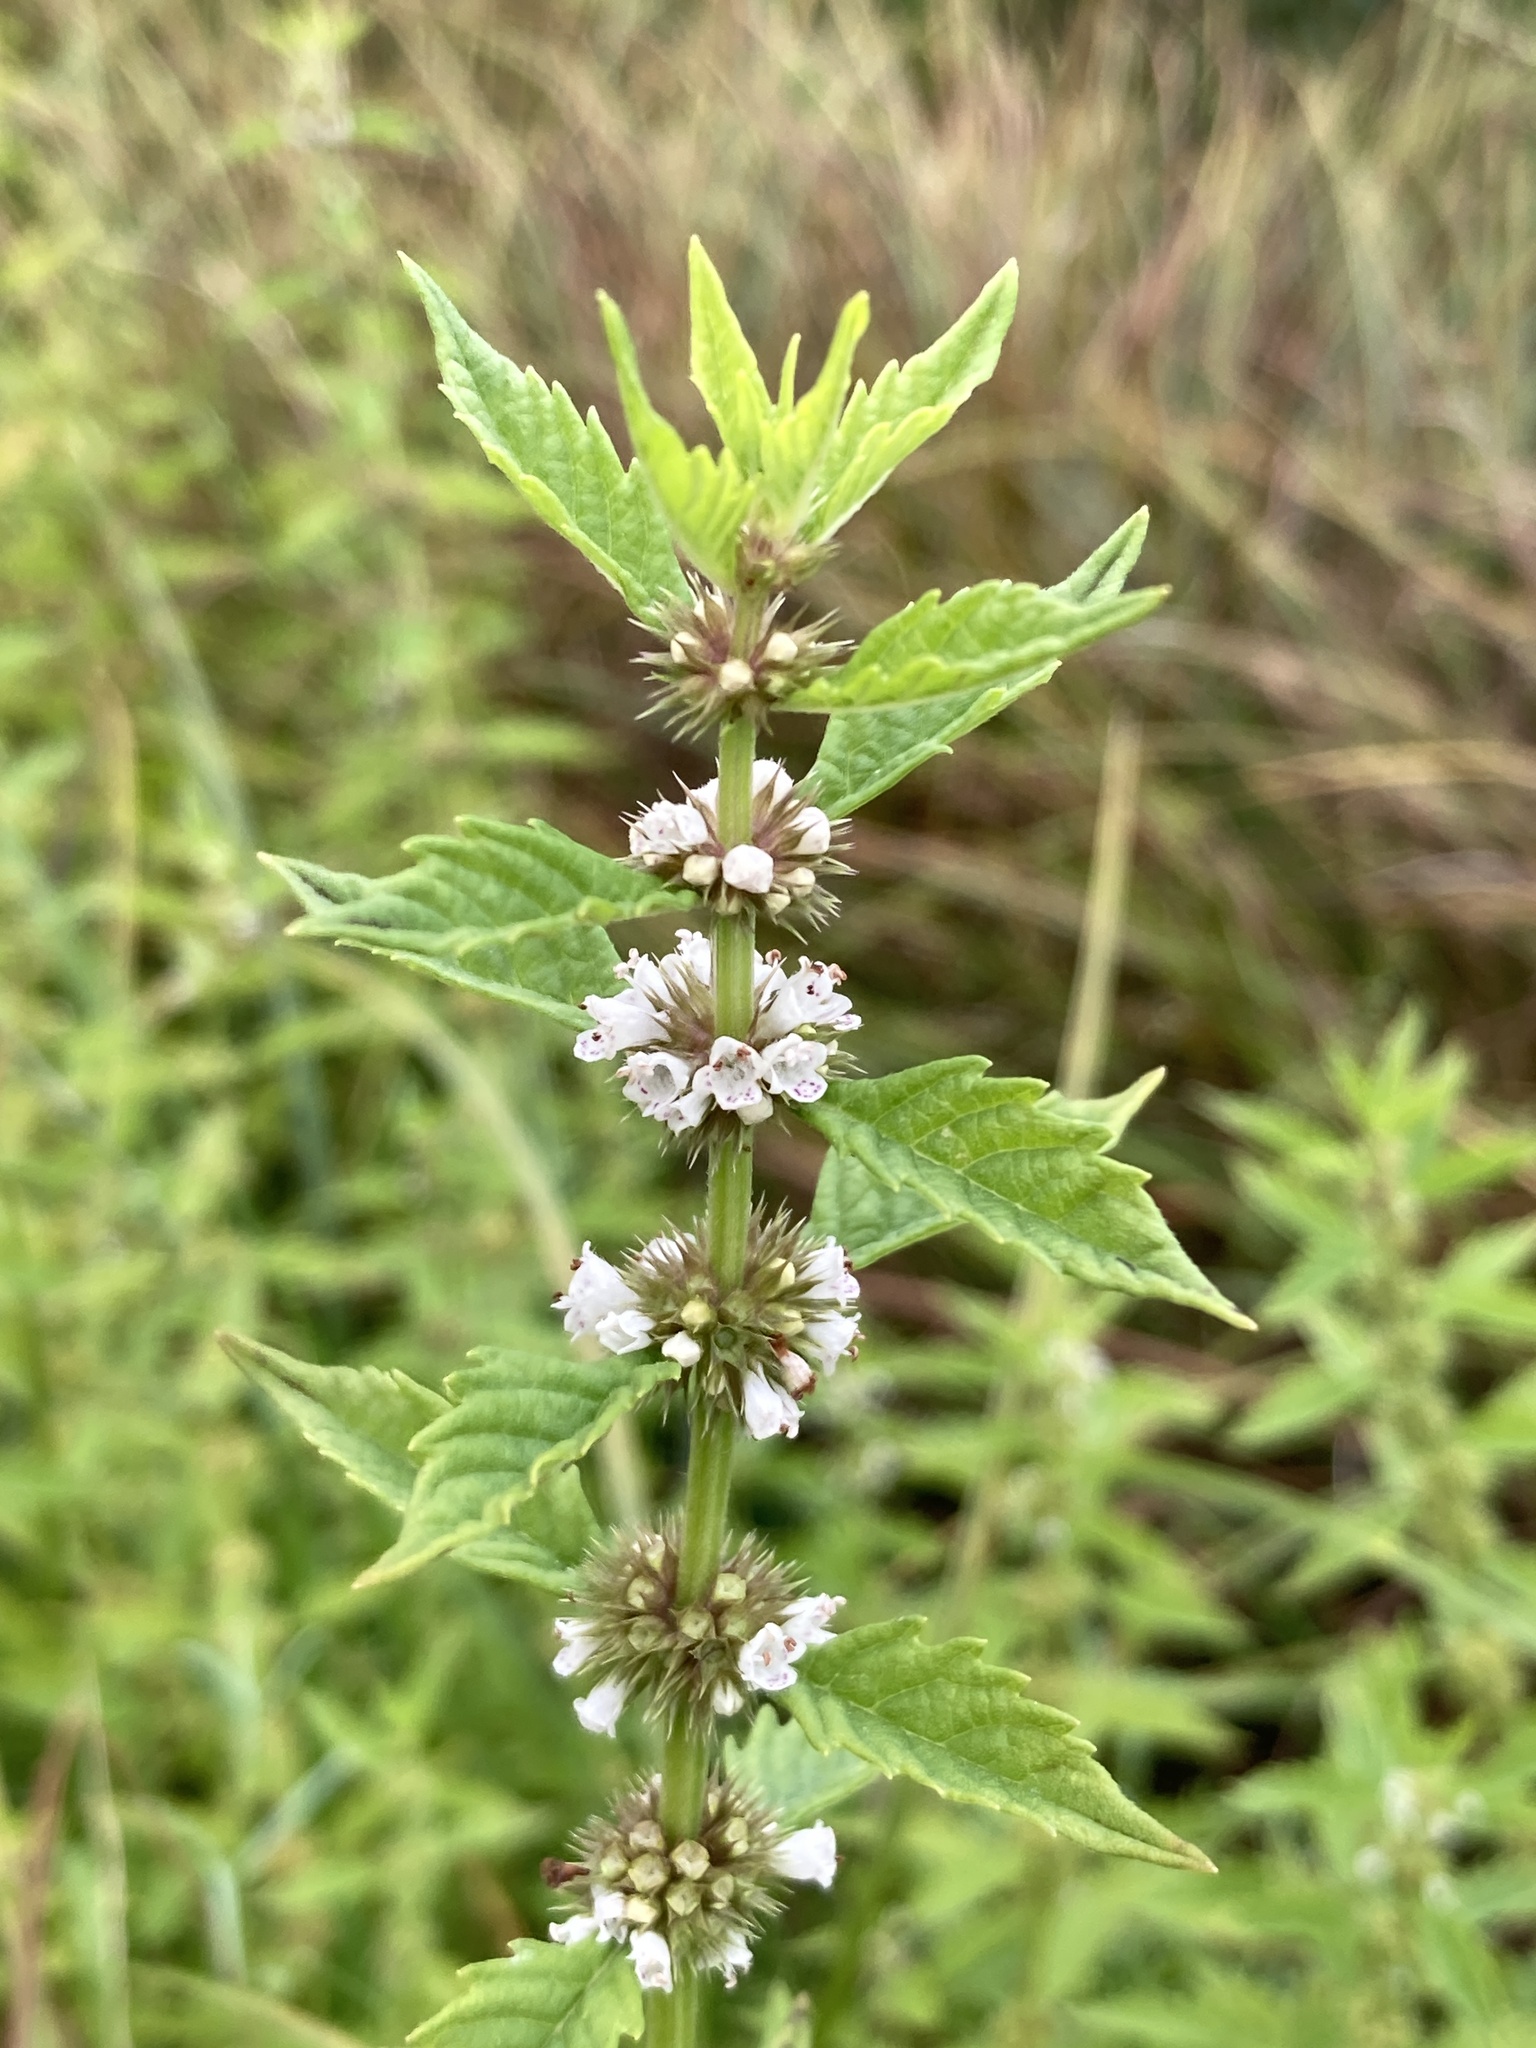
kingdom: Plantae
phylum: Tracheophyta
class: Magnoliopsida
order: Lamiales
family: Lamiaceae
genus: Lycopus
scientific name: Lycopus europaeus
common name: European bugleweed
